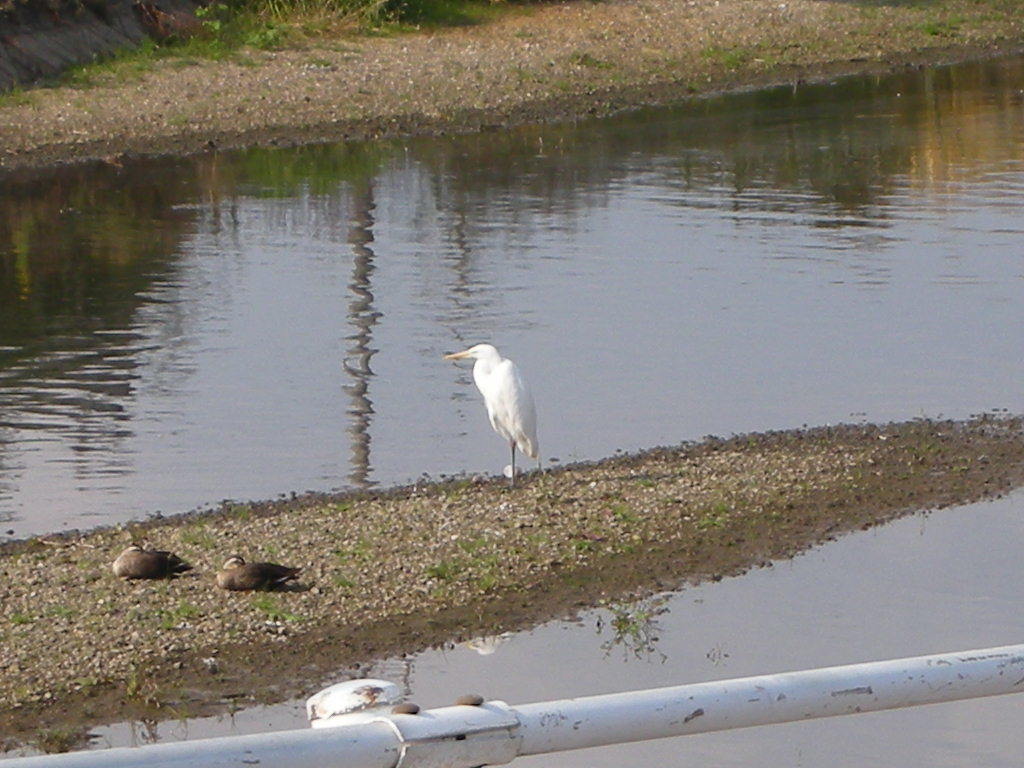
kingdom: Animalia
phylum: Chordata
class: Aves
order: Pelecaniformes
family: Ardeidae
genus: Ardea
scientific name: Ardea alba
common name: Great egret
